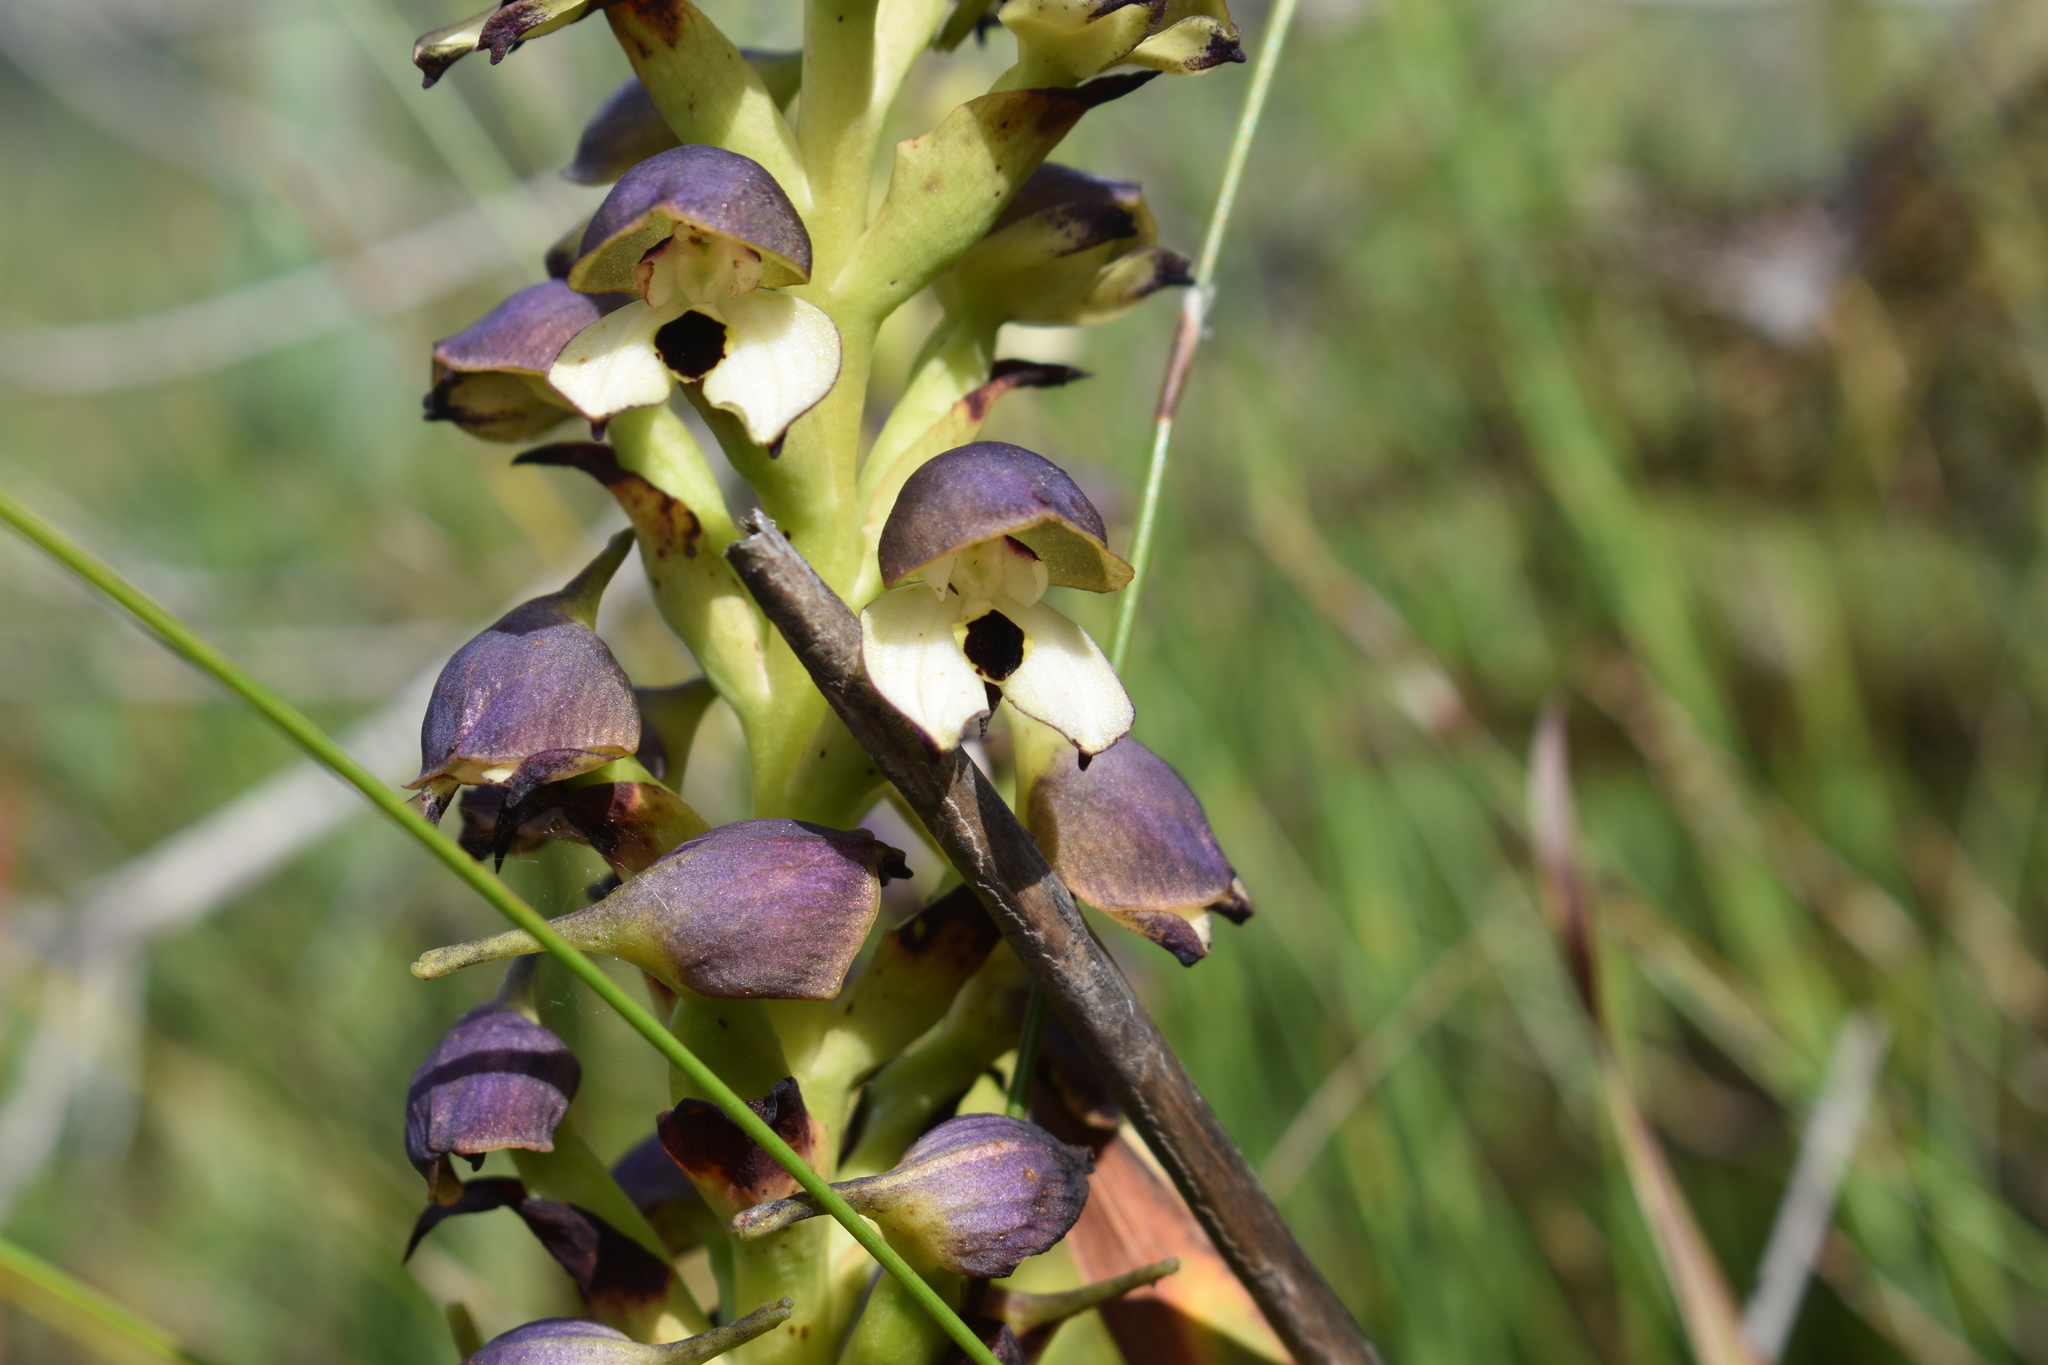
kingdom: Plantae
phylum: Tracheophyta
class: Liliopsida
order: Asparagales
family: Orchidaceae
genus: Disa
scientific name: Disa cornuta
